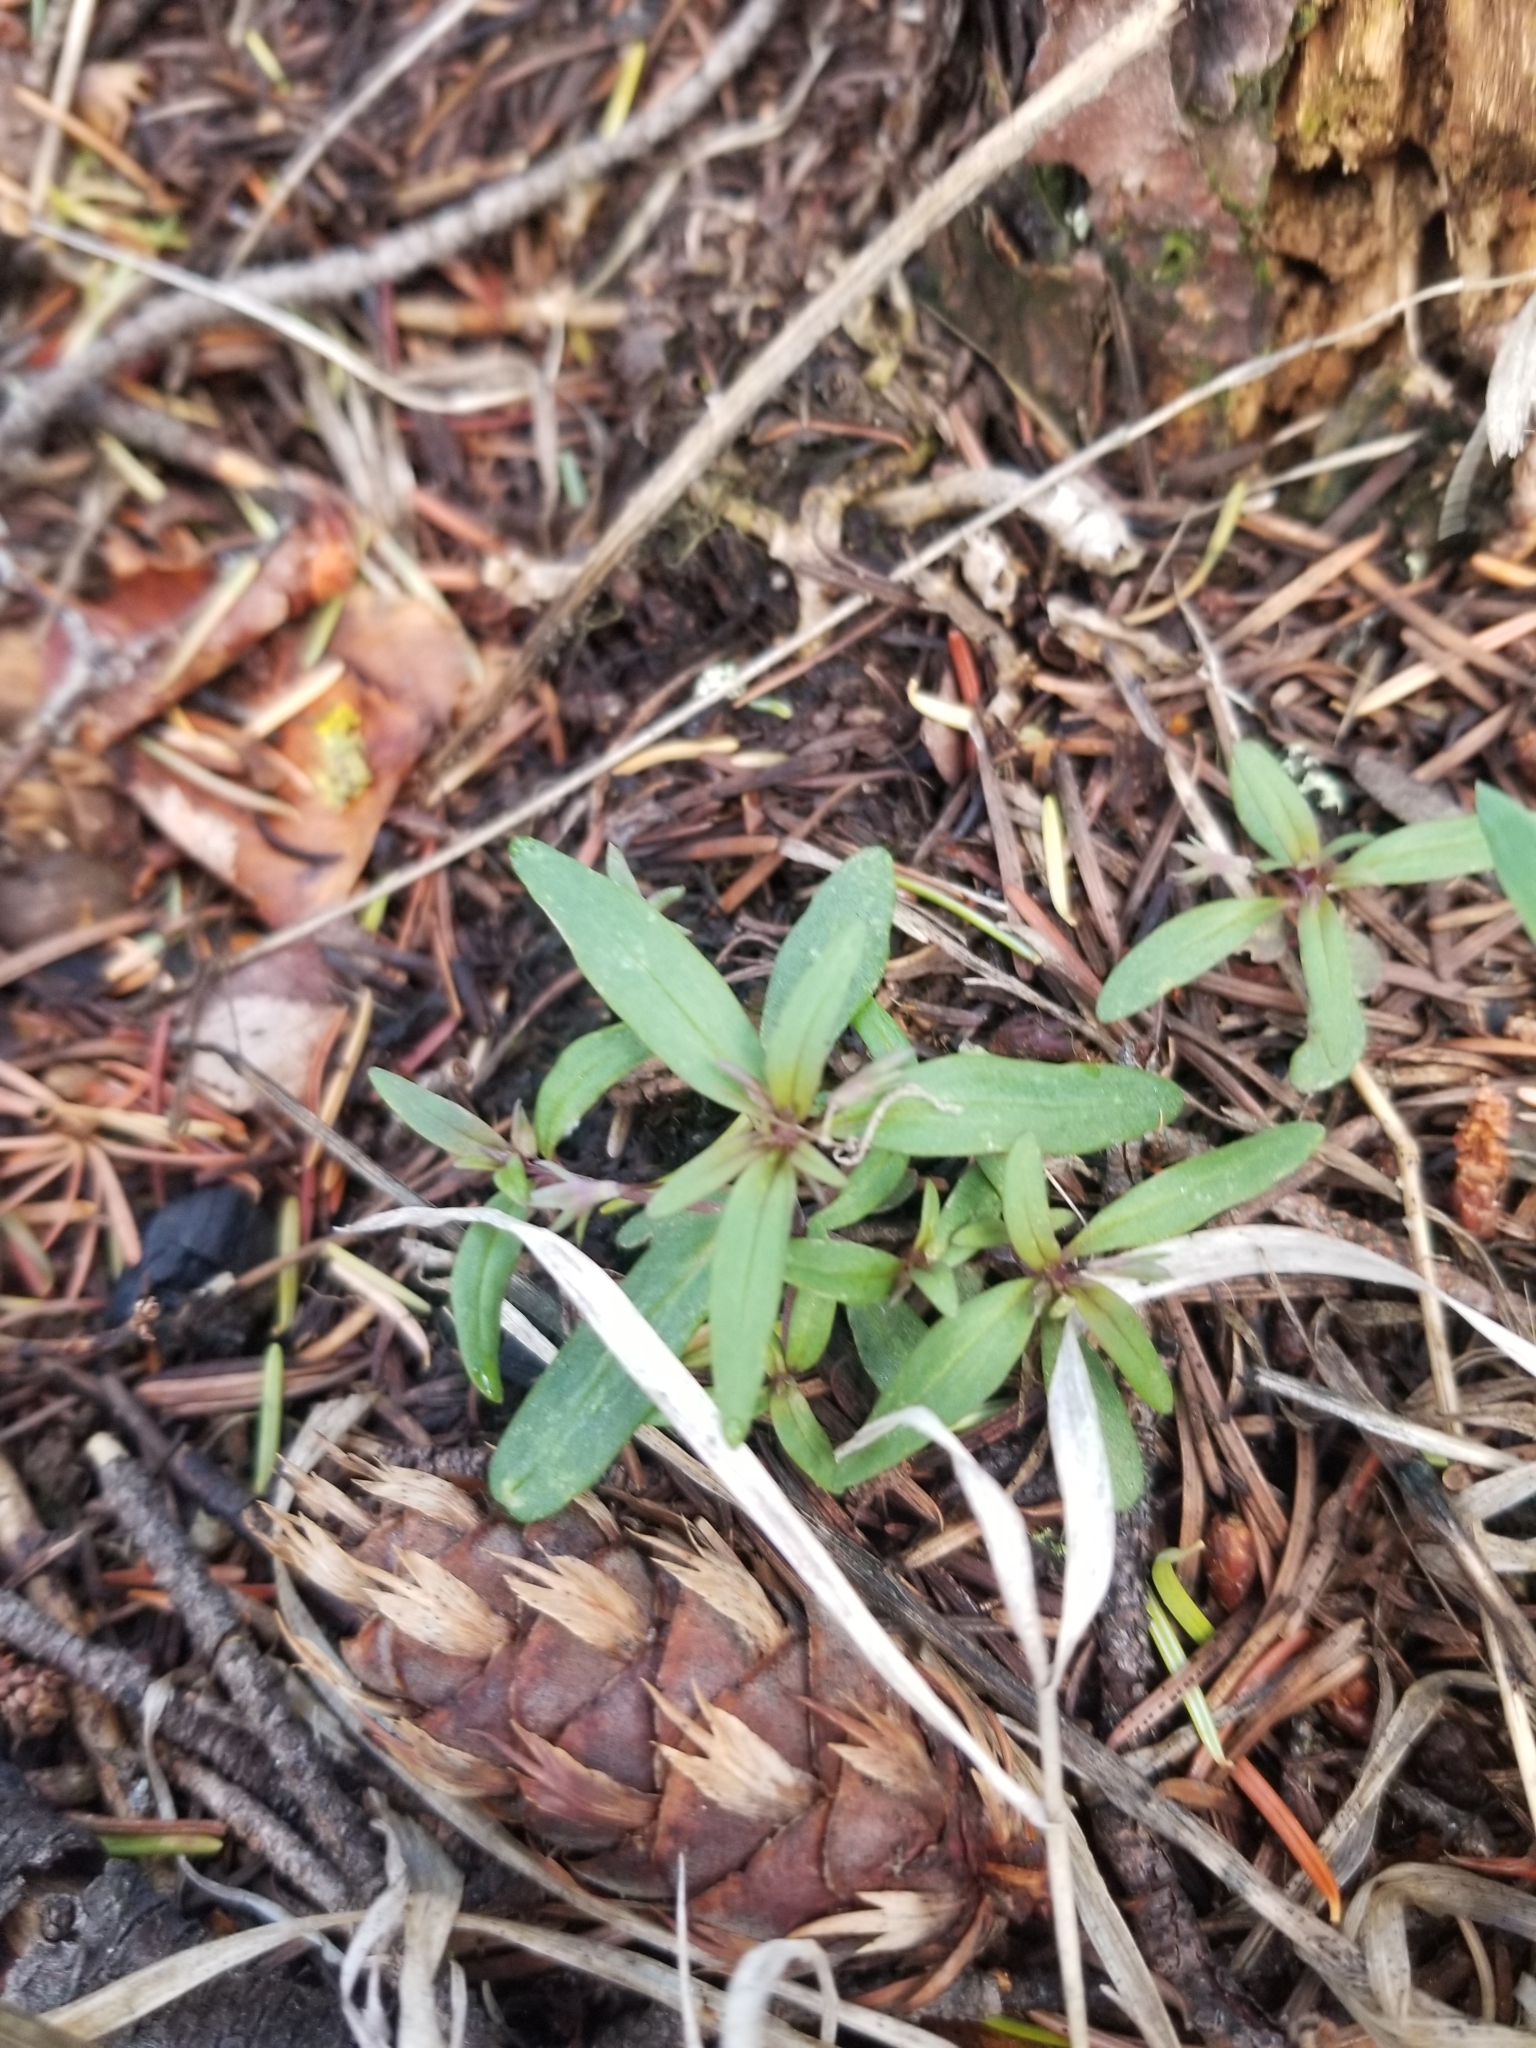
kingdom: Plantae
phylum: Tracheophyta
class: Magnoliopsida
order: Lamiales
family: Plantaginaceae
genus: Collinsia
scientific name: Collinsia parviflora
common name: Blue-lips
